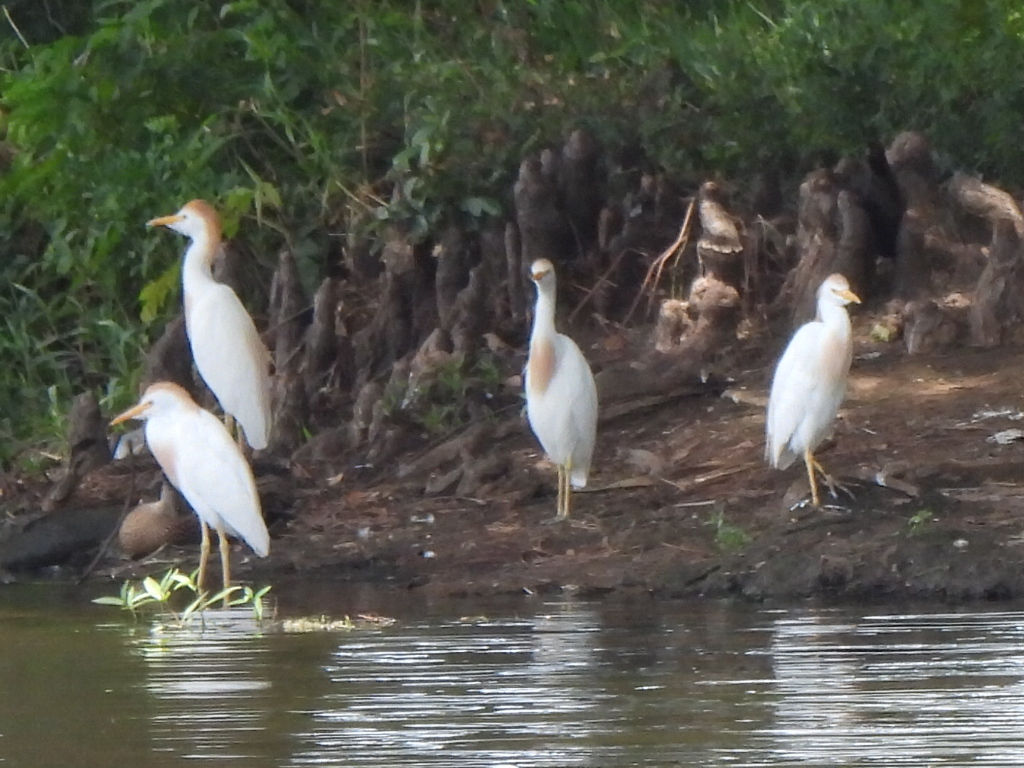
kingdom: Animalia
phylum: Chordata
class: Aves
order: Pelecaniformes
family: Ardeidae
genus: Bubulcus
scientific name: Bubulcus ibis
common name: Cattle egret
